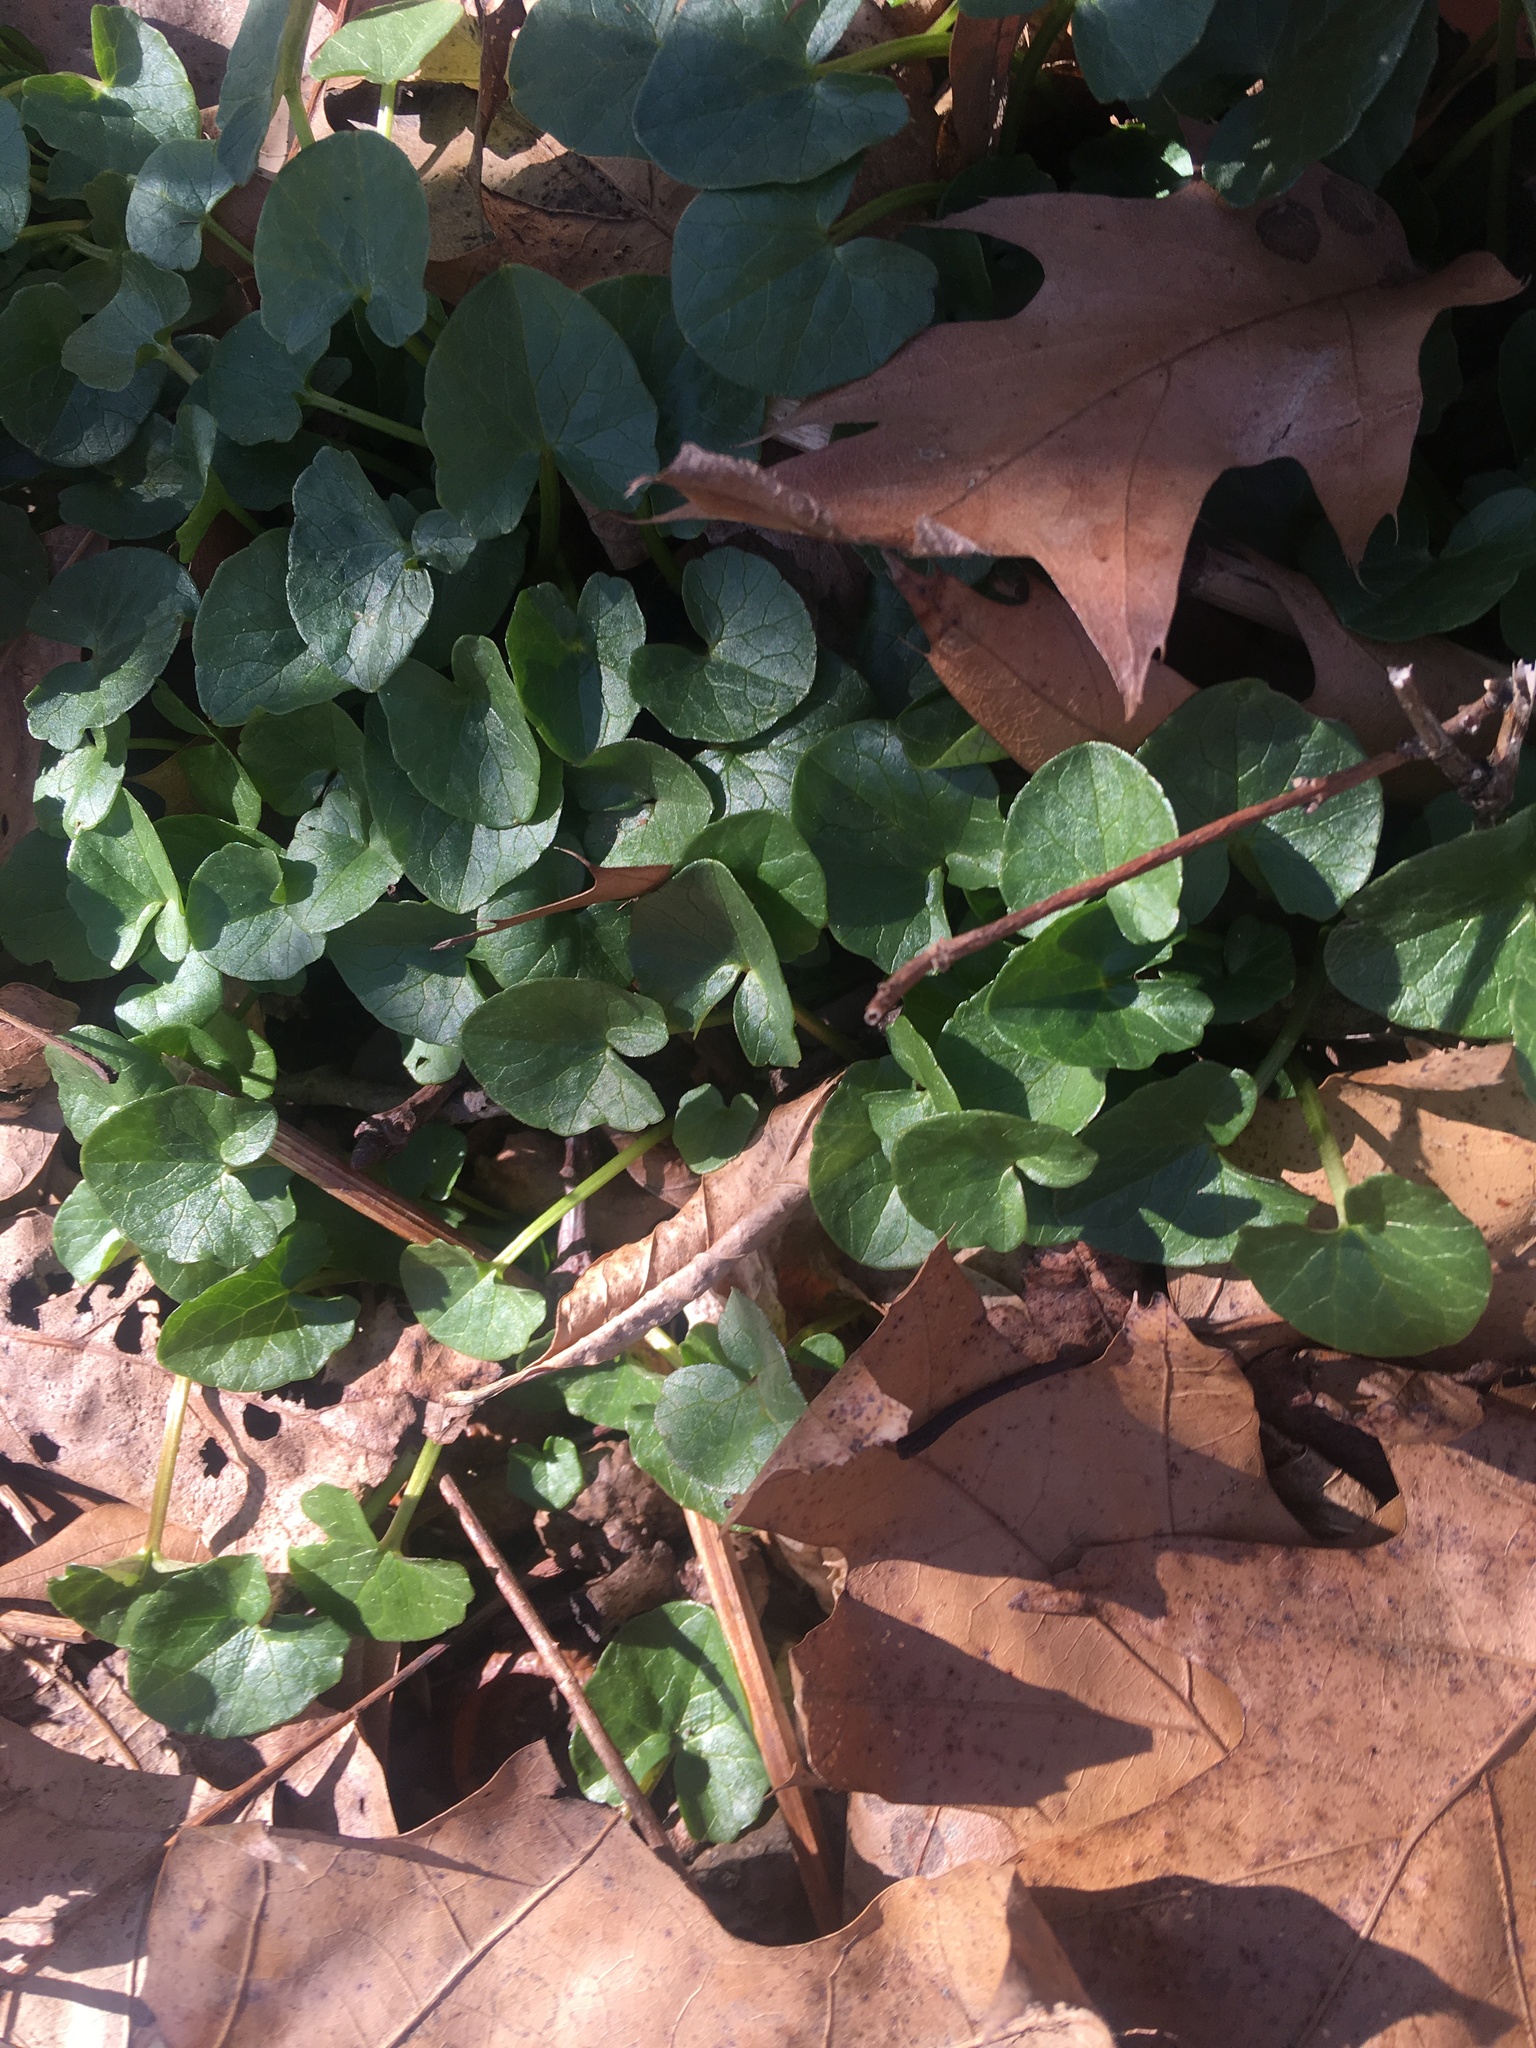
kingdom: Plantae
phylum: Tracheophyta
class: Magnoliopsida
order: Ranunculales
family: Ranunculaceae
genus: Ficaria
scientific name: Ficaria verna
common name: Lesser celandine
